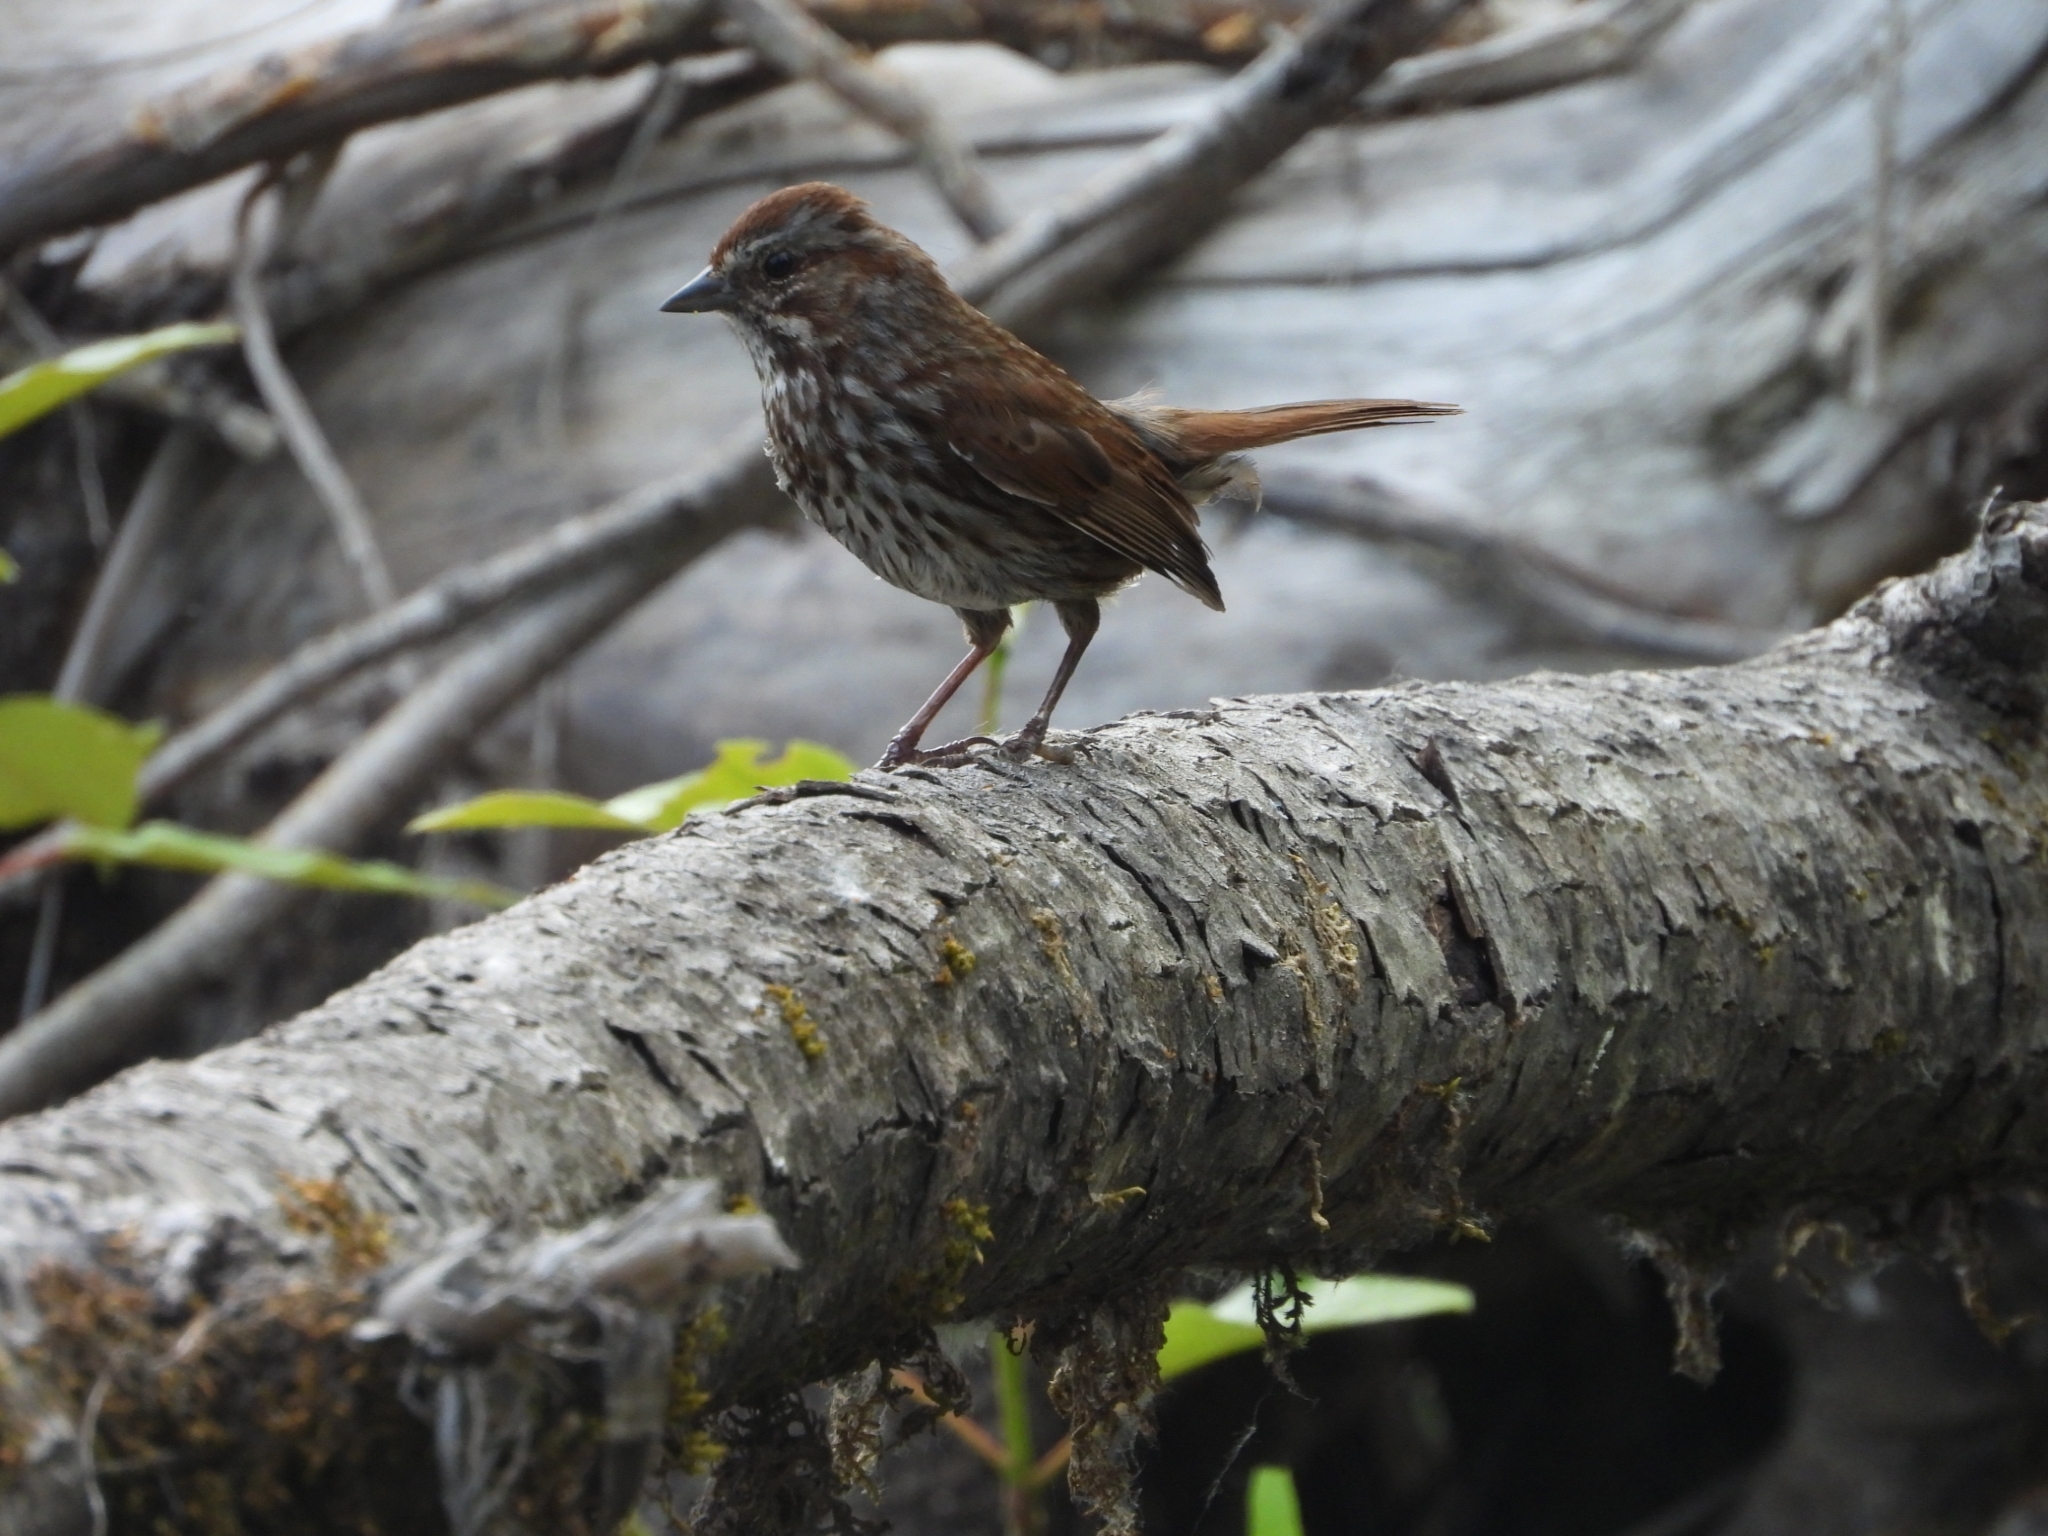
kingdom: Animalia
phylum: Chordata
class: Aves
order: Passeriformes
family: Passerellidae
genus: Melospiza
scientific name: Melospiza melodia
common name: Song sparrow
